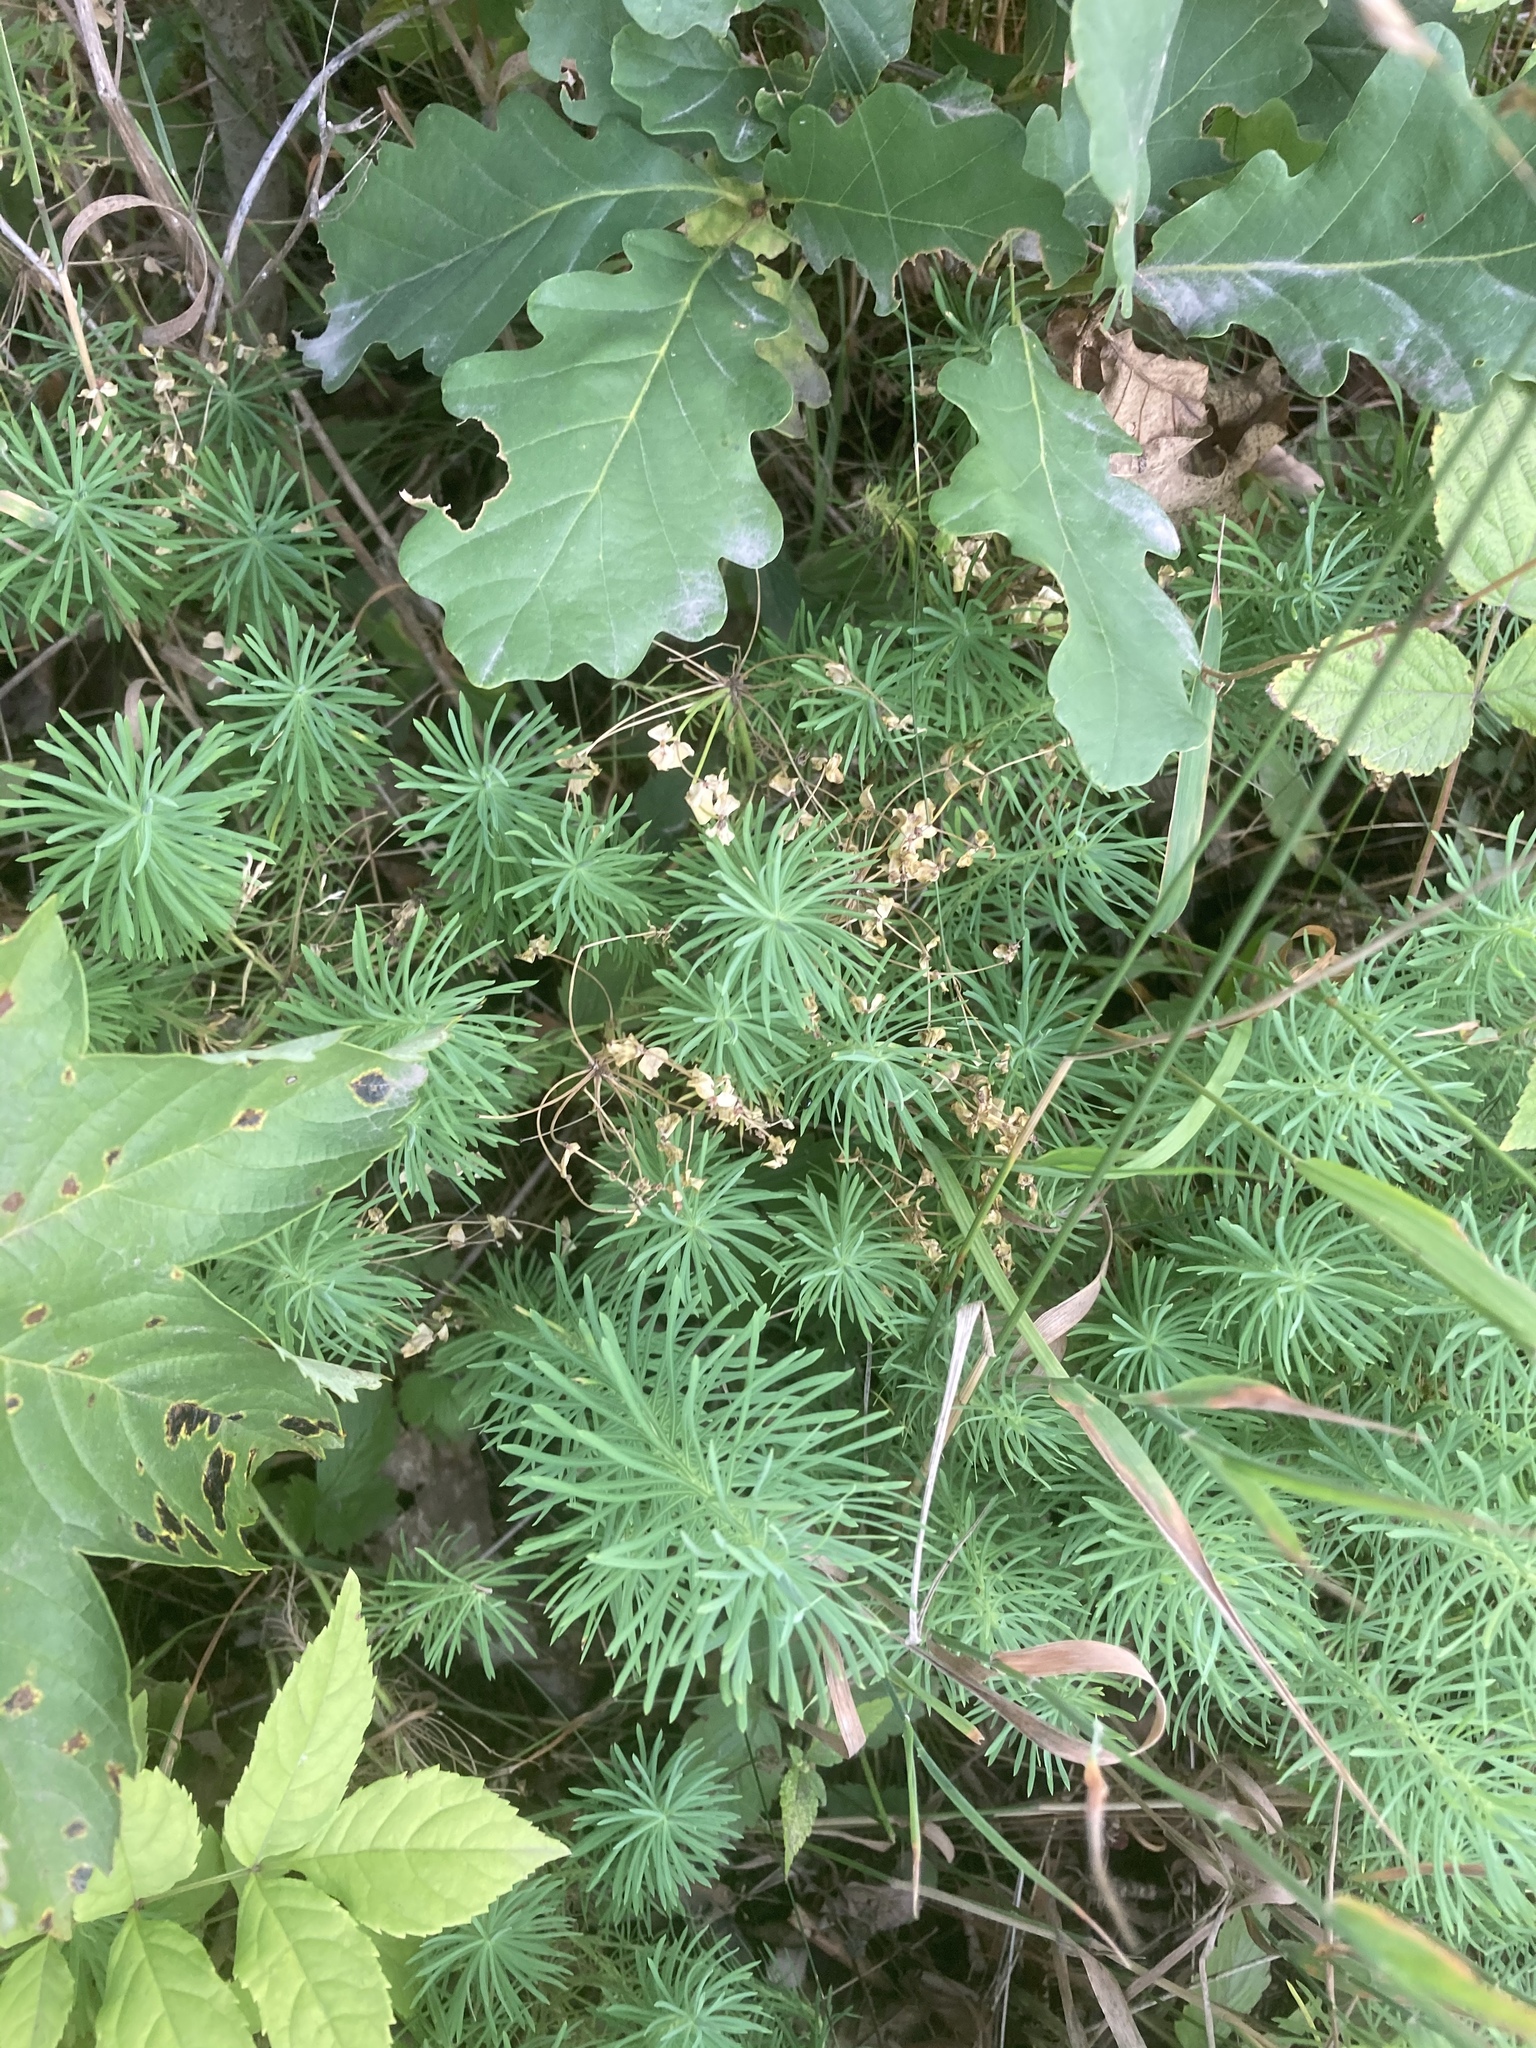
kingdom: Plantae
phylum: Tracheophyta
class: Magnoliopsida
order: Malpighiales
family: Euphorbiaceae
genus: Euphorbia
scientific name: Euphorbia cyparissias
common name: Cypress spurge
